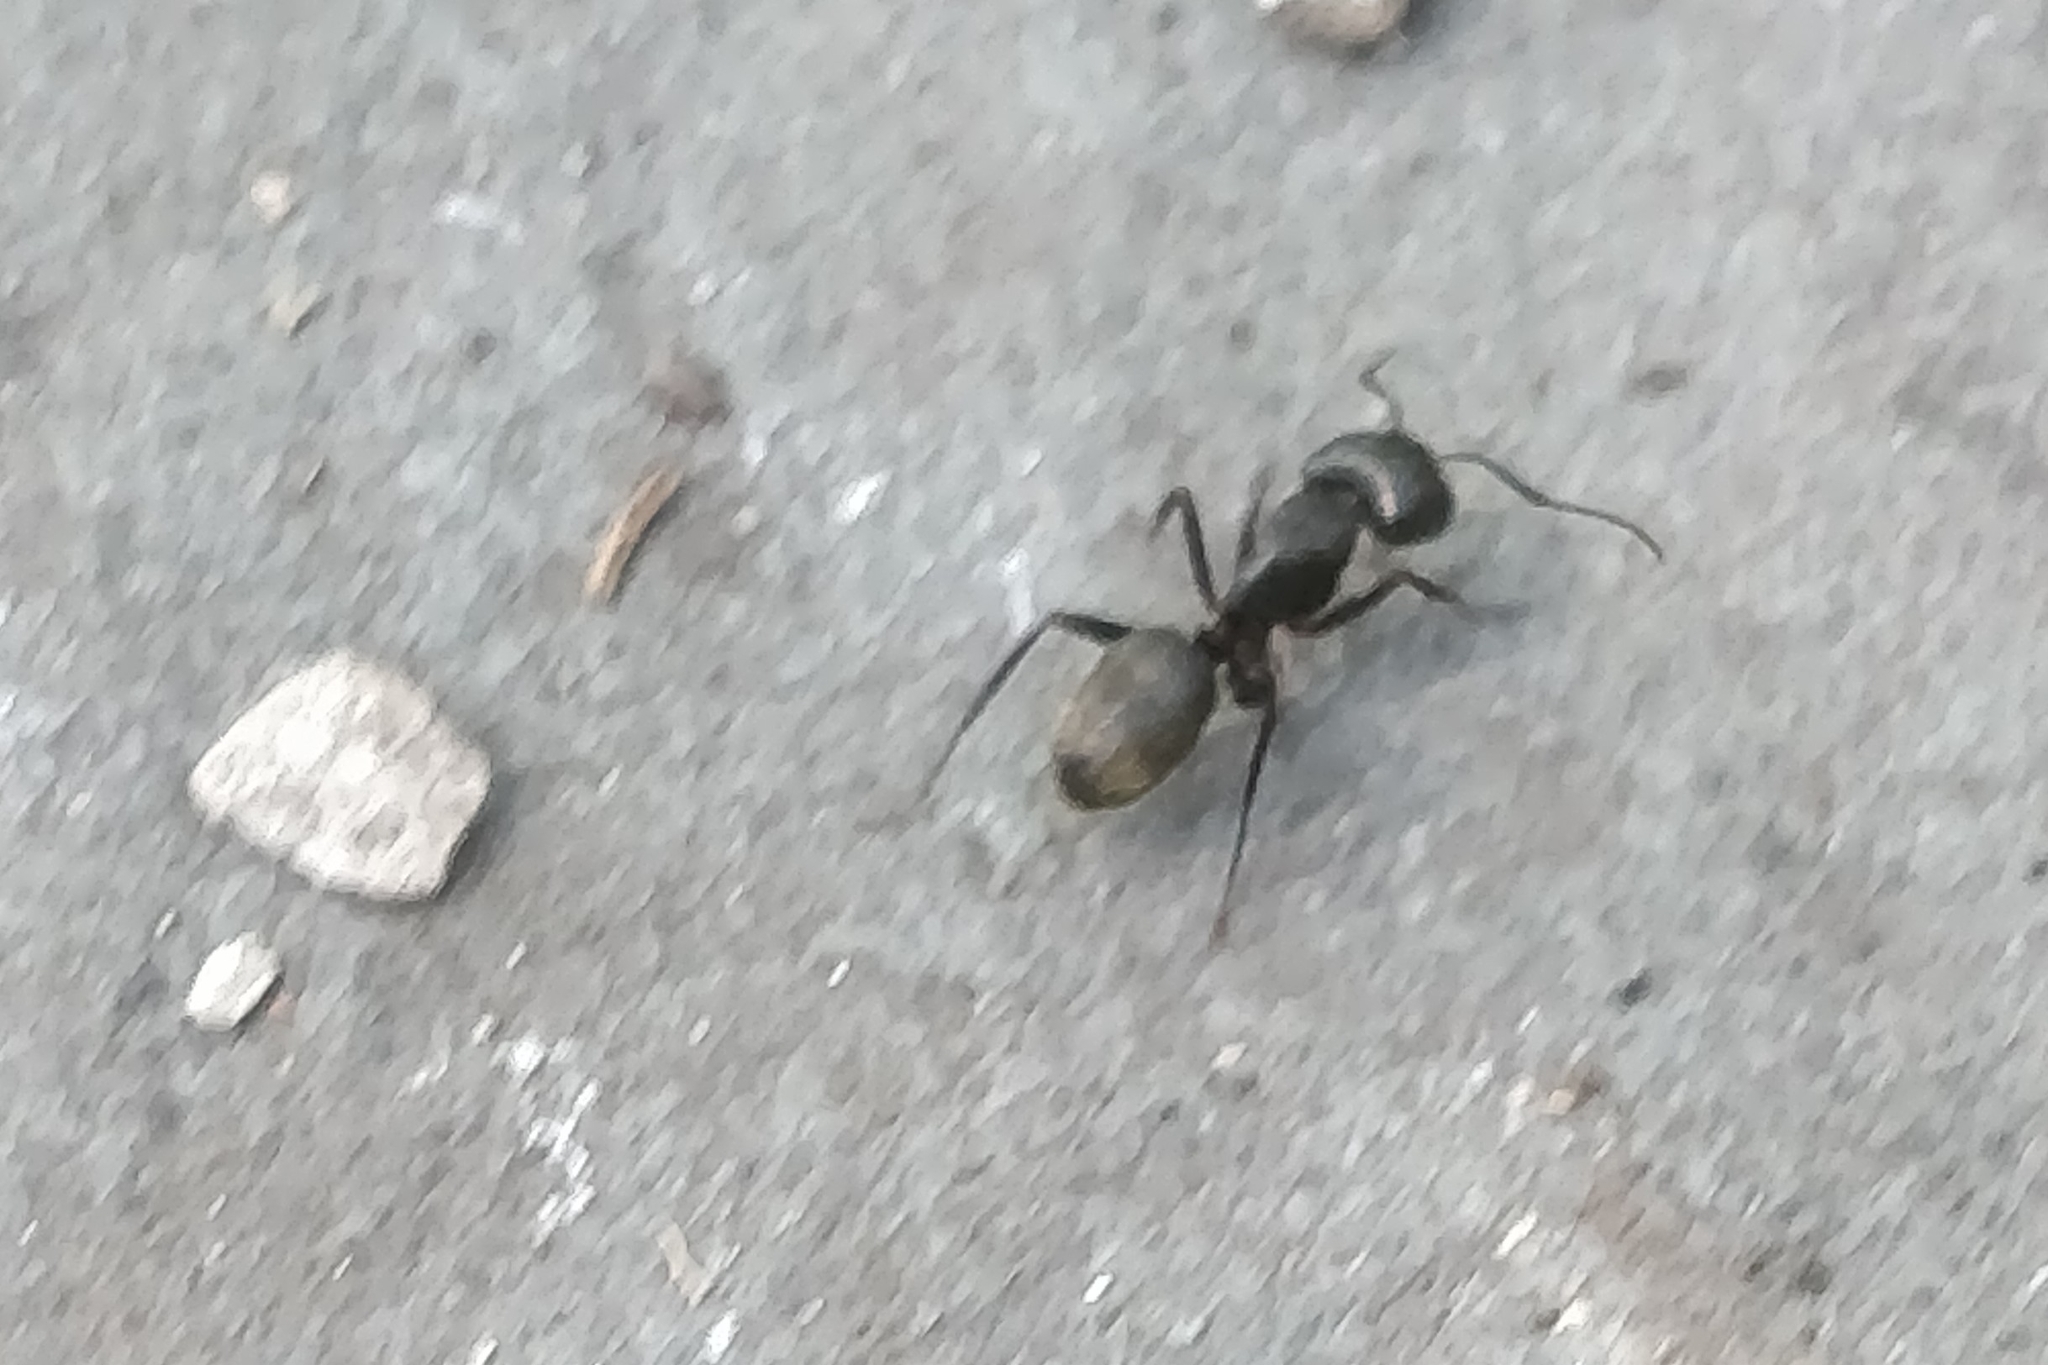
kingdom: Animalia
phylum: Arthropoda
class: Insecta
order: Hymenoptera
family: Formicidae
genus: Camponotus
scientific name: Camponotus pennsylvanicus
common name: Black carpenter ant
